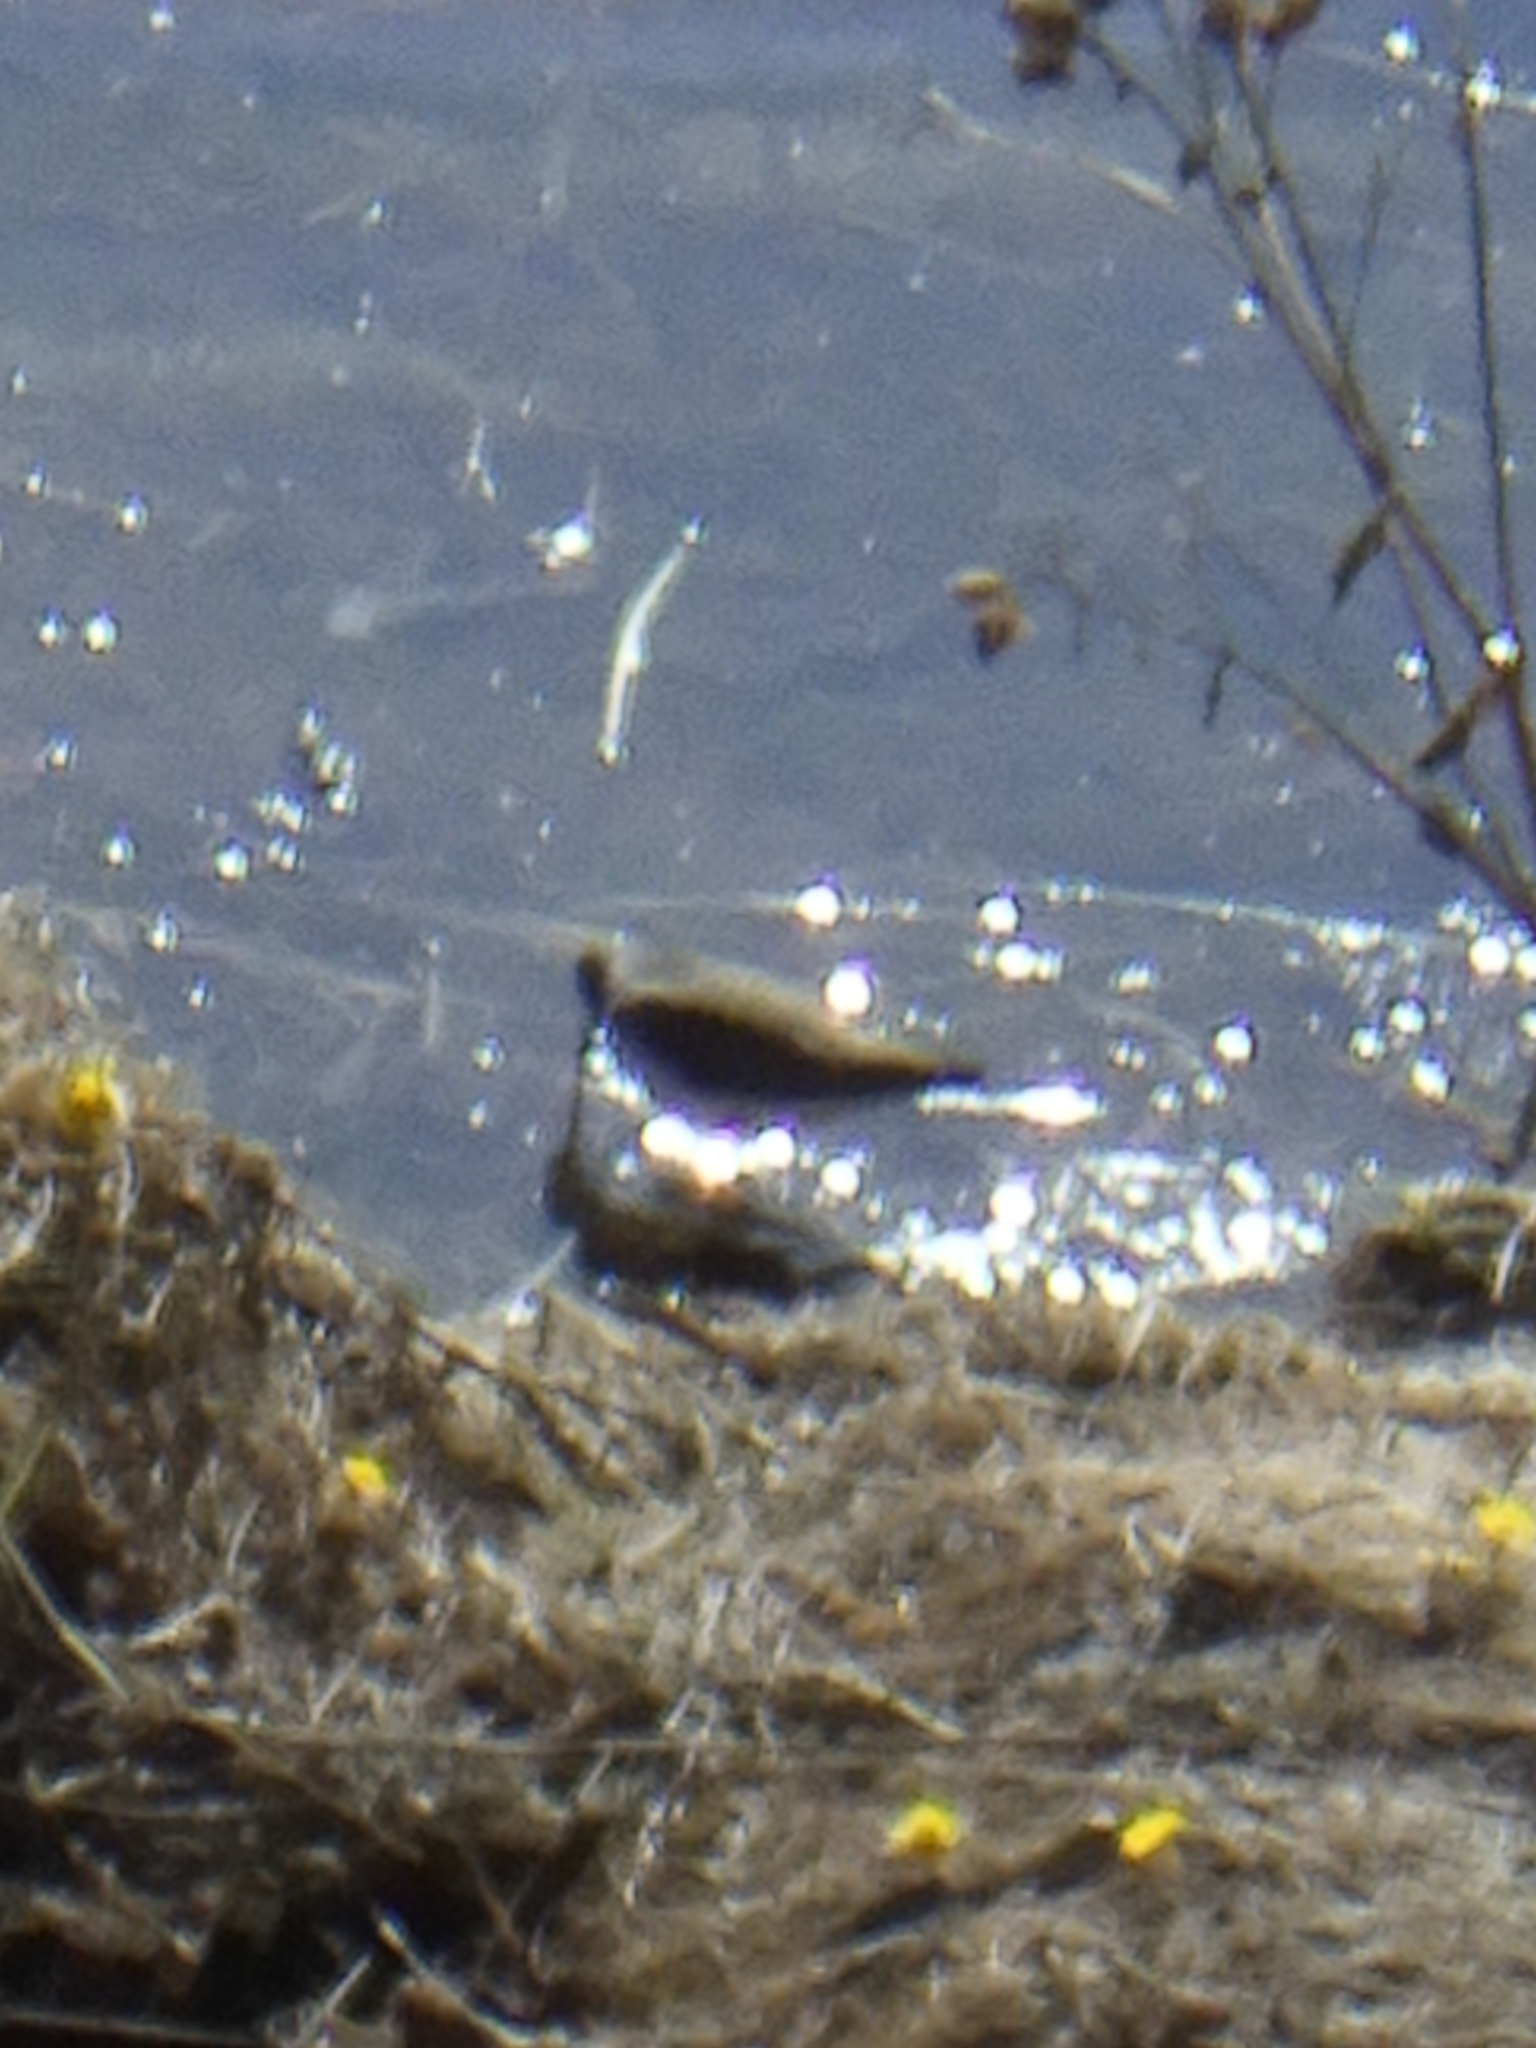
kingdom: Animalia
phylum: Chordata
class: Aves
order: Charadriiformes
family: Scolopacidae
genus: Tringa
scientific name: Tringa ochropus
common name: Green sandpiper
